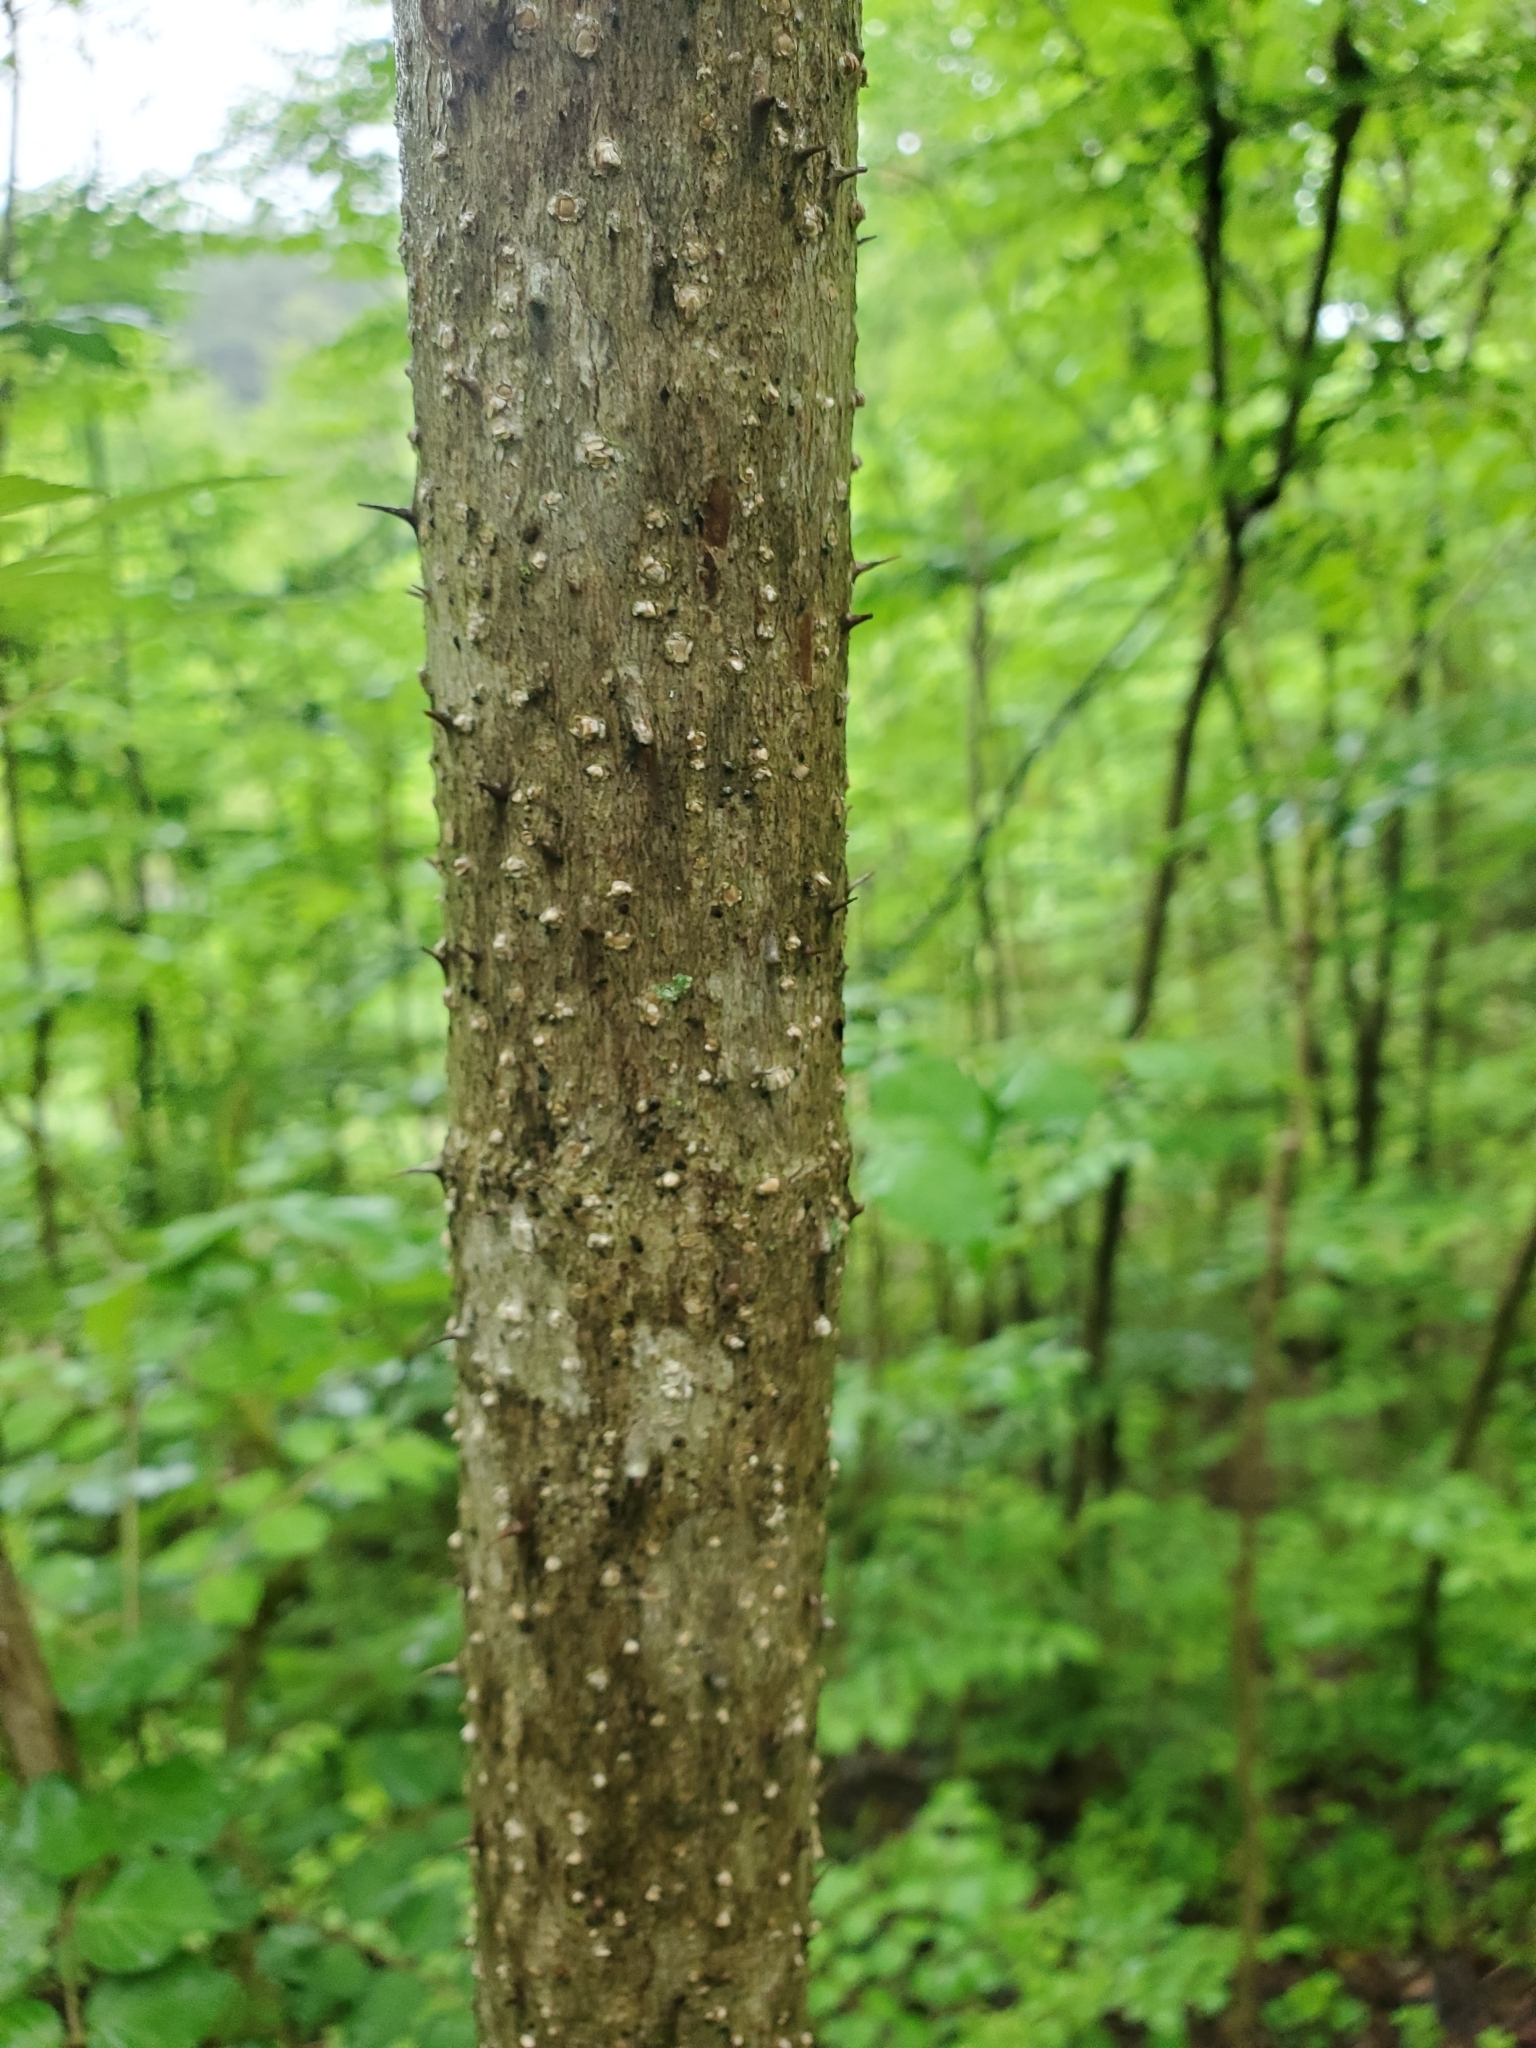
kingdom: Plantae
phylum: Tracheophyta
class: Magnoliopsida
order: Apiales
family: Araliaceae
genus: Aralia
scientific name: Aralia spinosa
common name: Hercules'-club
